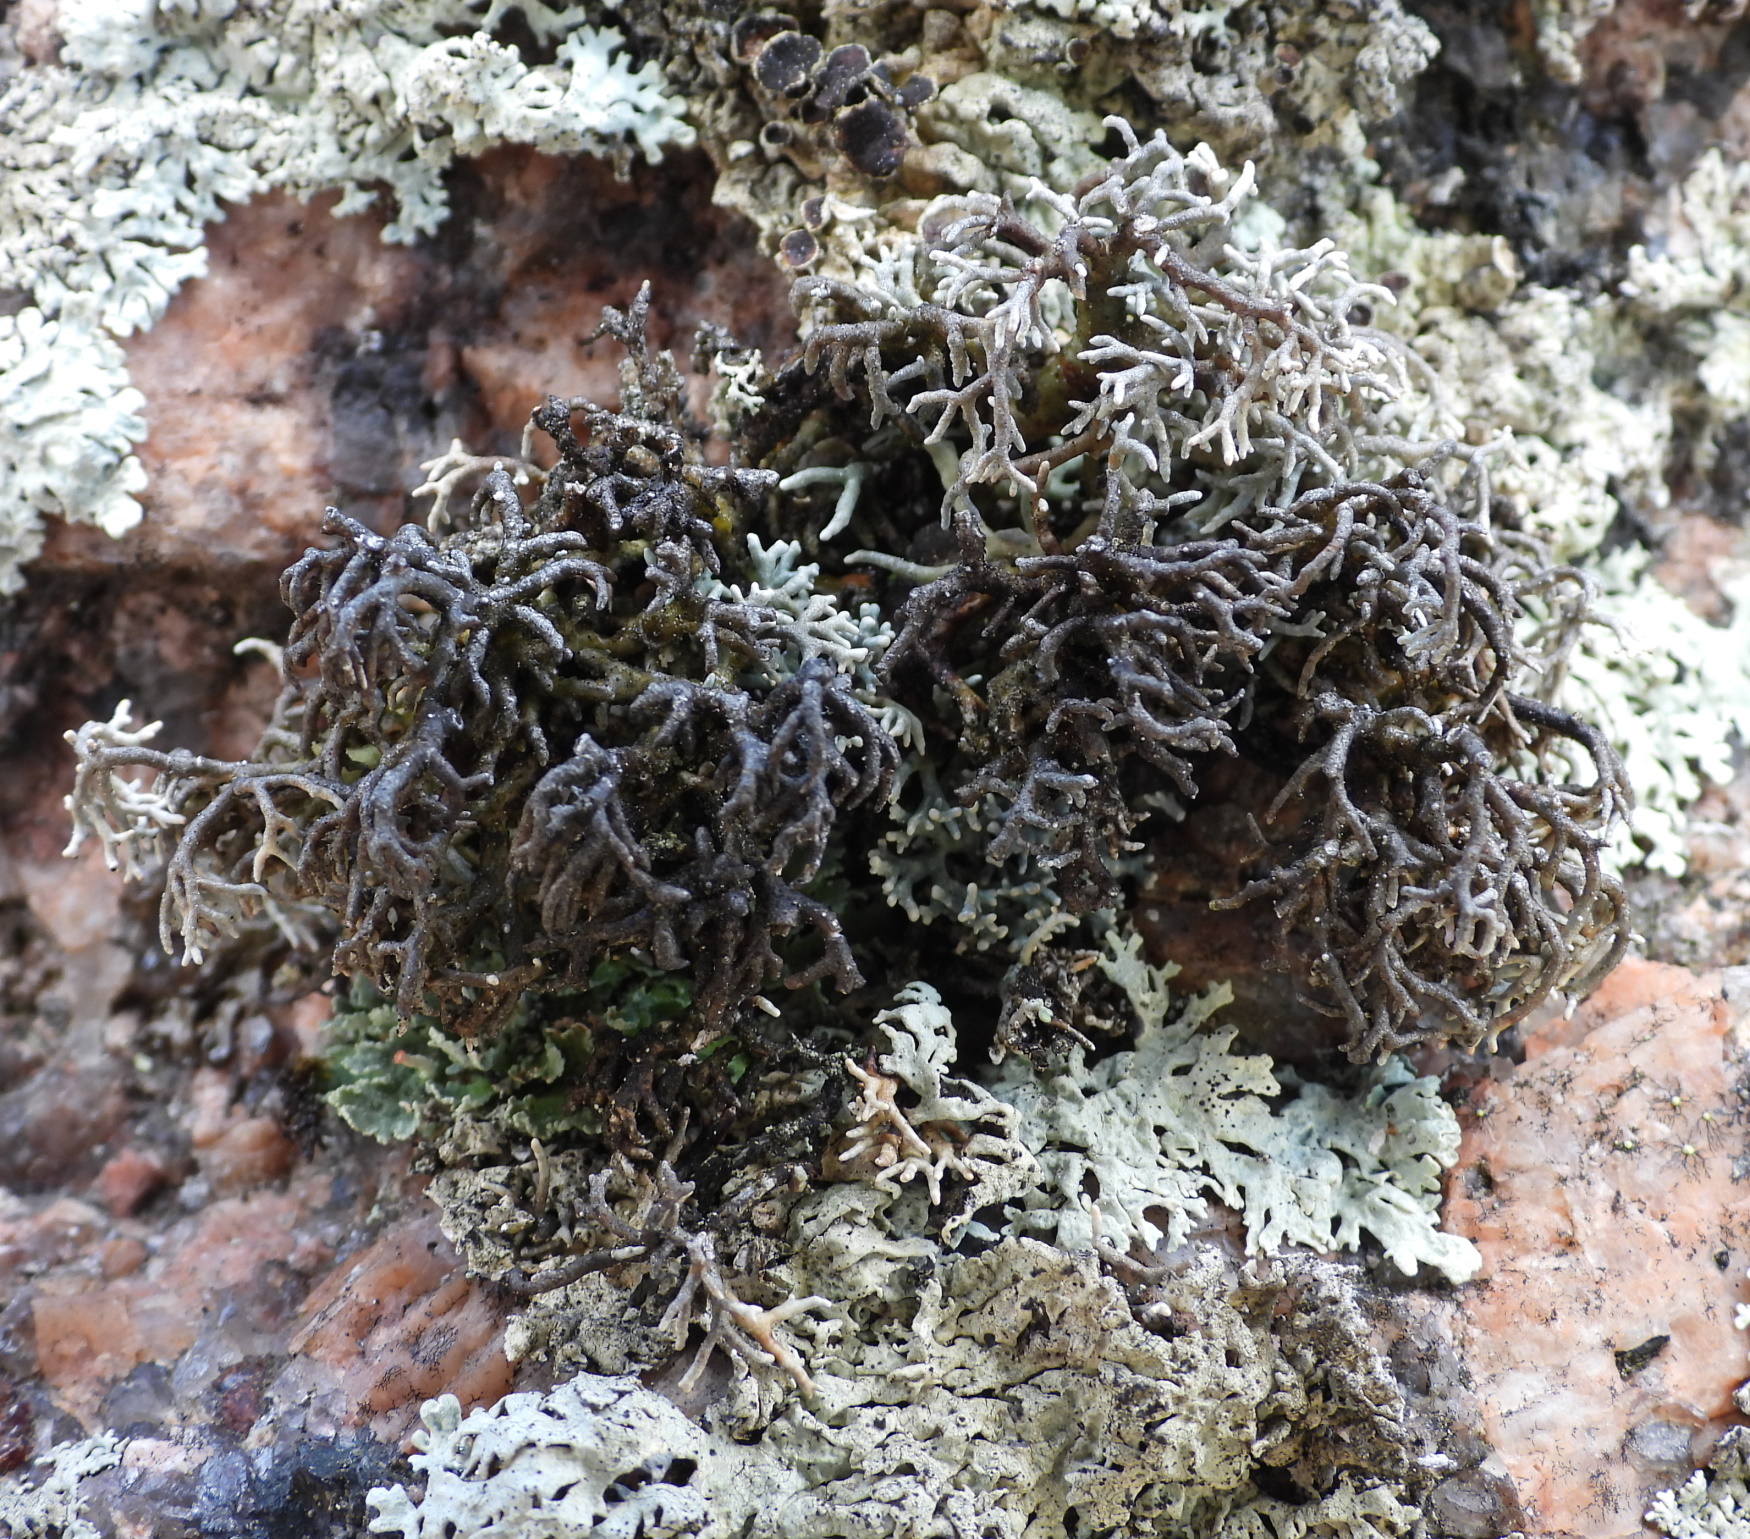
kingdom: Fungi
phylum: Ascomycota
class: Lecanoromycetes
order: Lecanorales
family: Sphaerophoraceae
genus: Sphaerophorus
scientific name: Sphaerophorus fragilis
